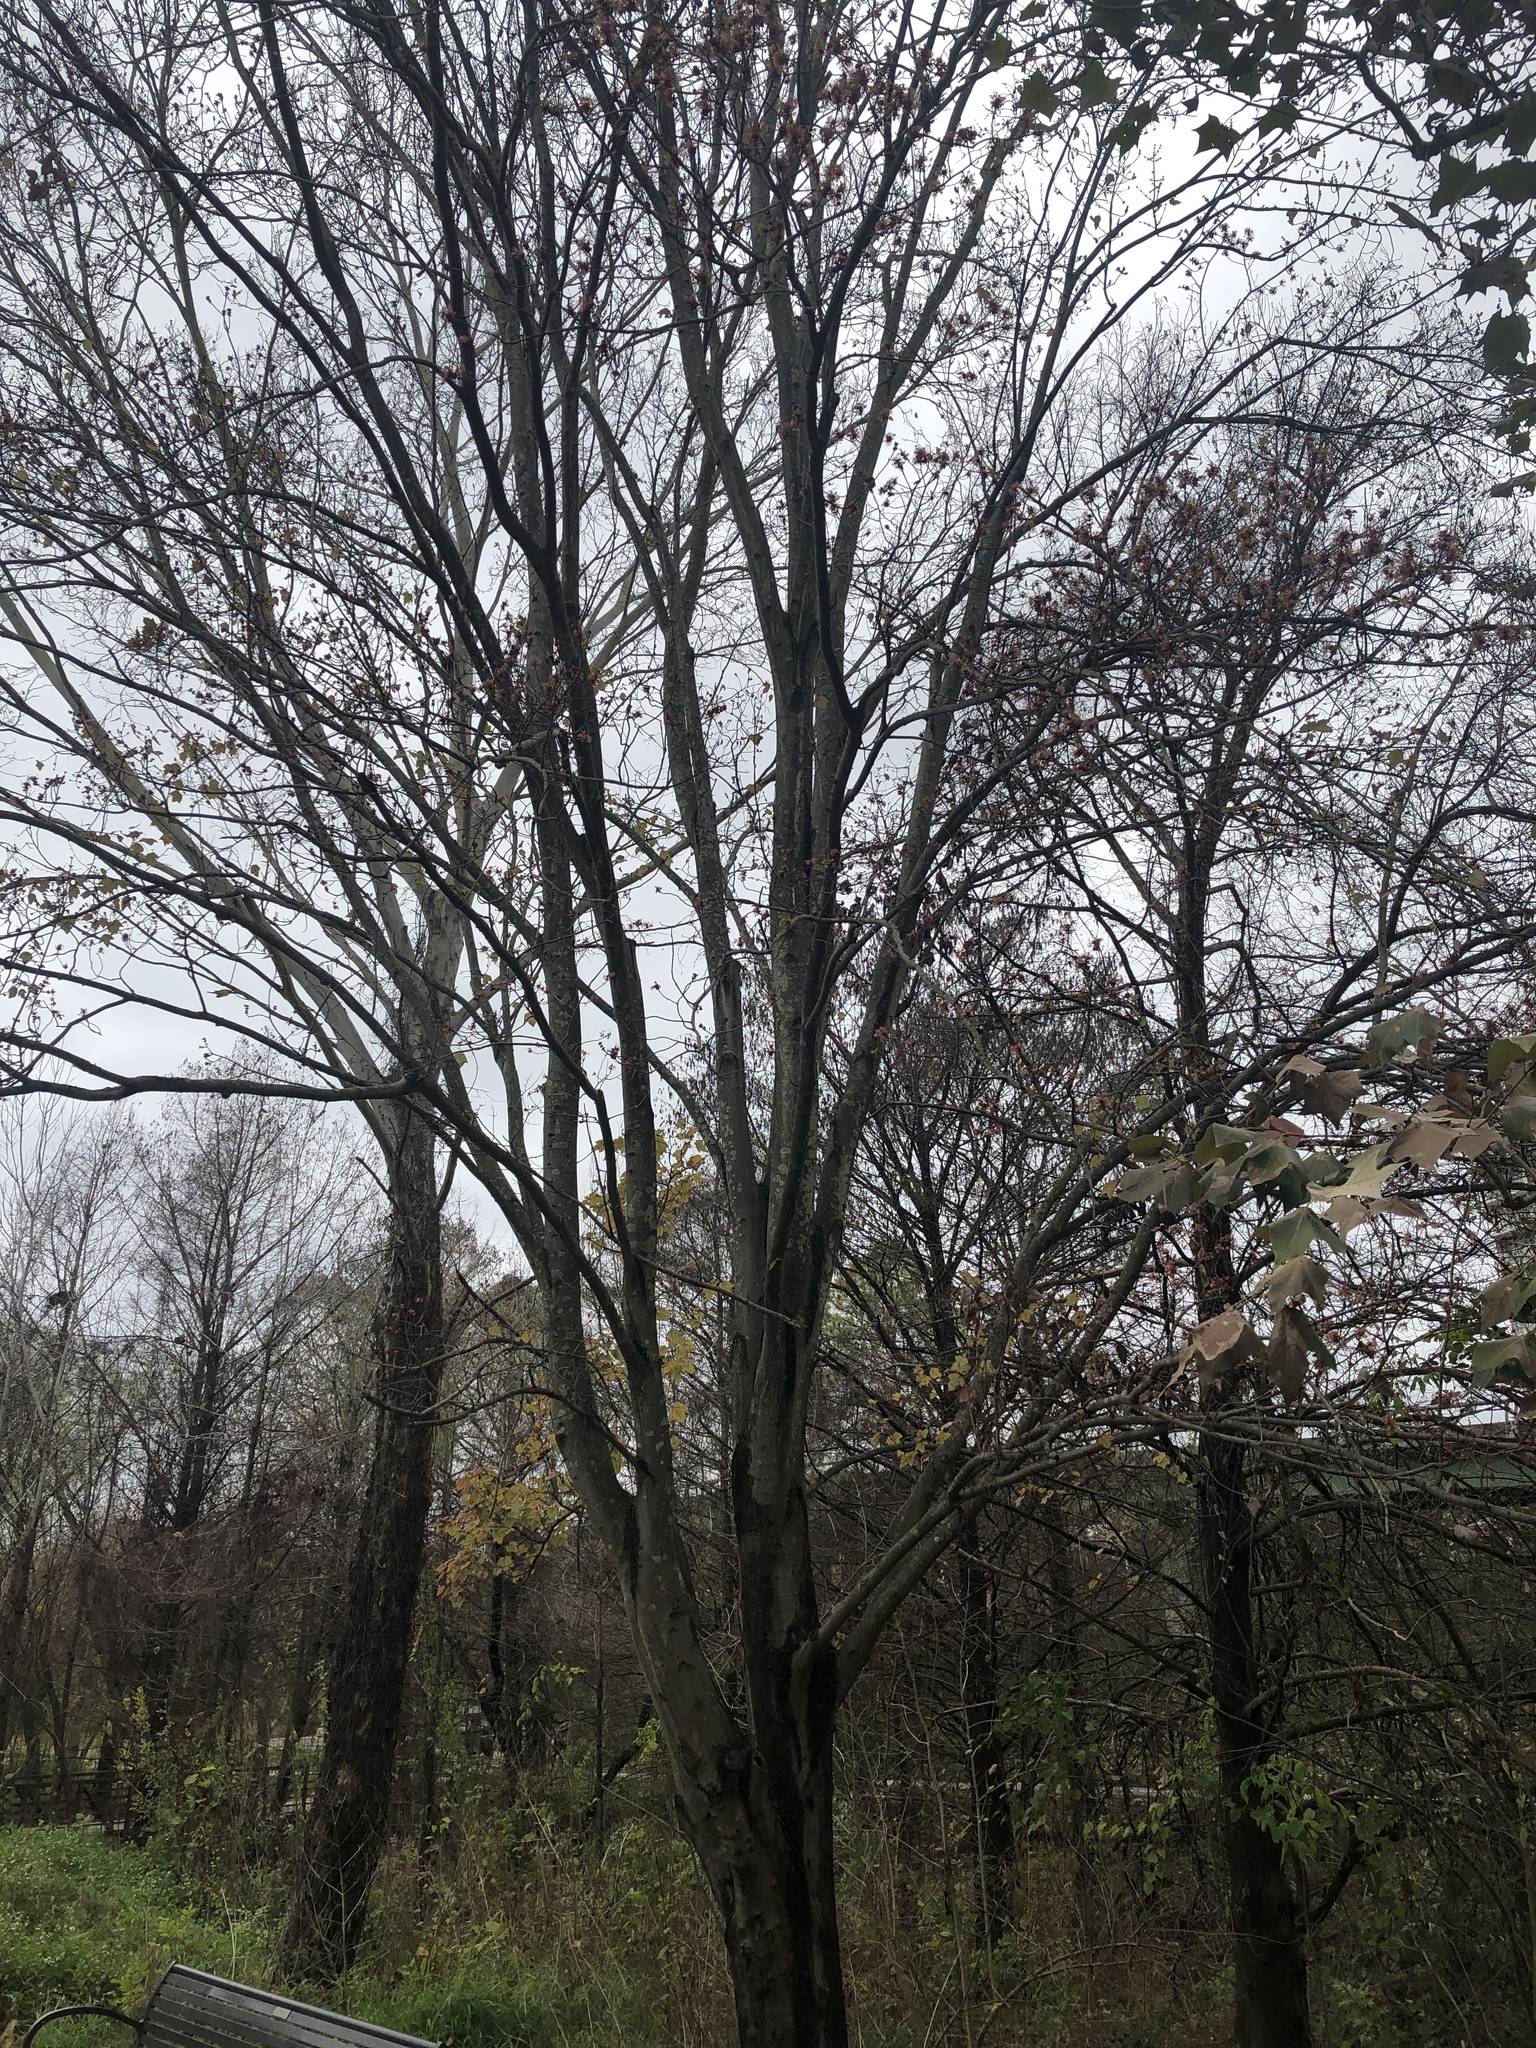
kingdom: Plantae
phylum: Tracheophyta
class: Magnoliopsida
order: Sapindales
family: Sapindaceae
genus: Acer
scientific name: Acer rubrum
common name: Red maple
